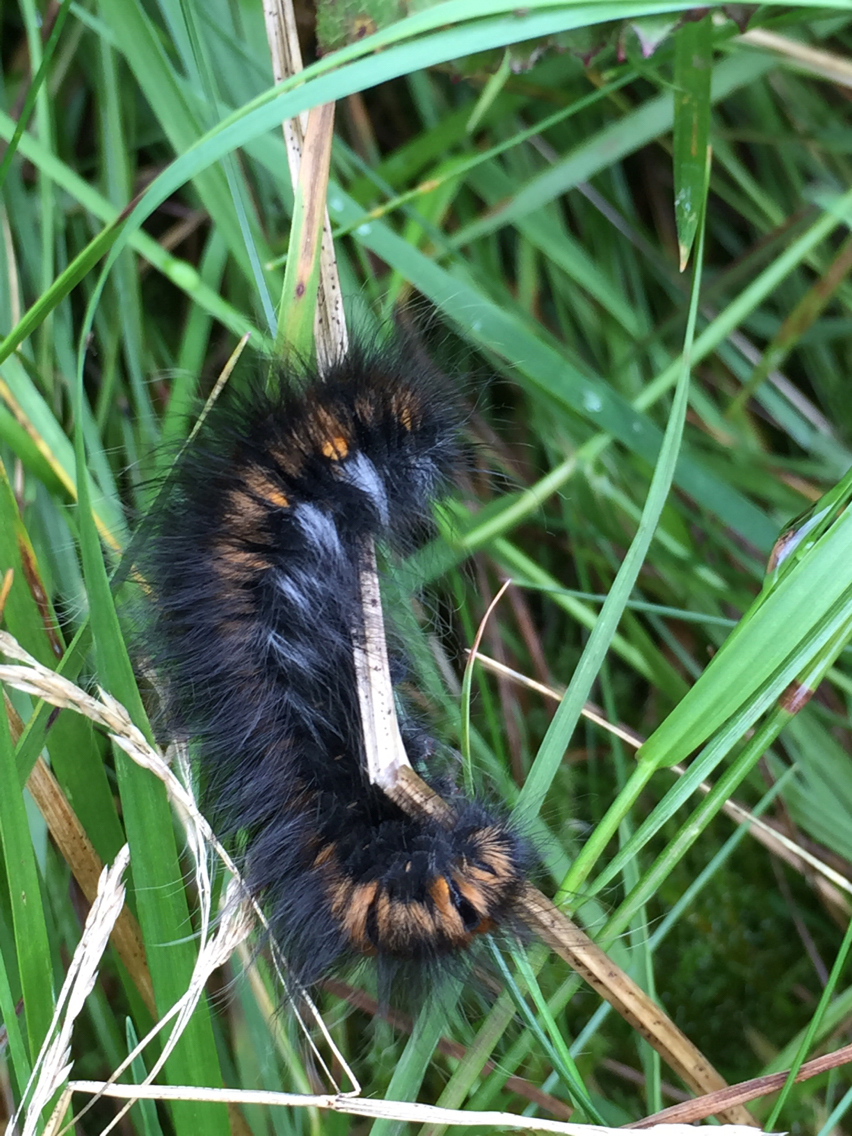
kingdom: Animalia
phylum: Arthropoda
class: Insecta
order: Lepidoptera
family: Lasiocampidae
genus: Macrothylacia
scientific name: Macrothylacia rubi
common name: Fox moth
